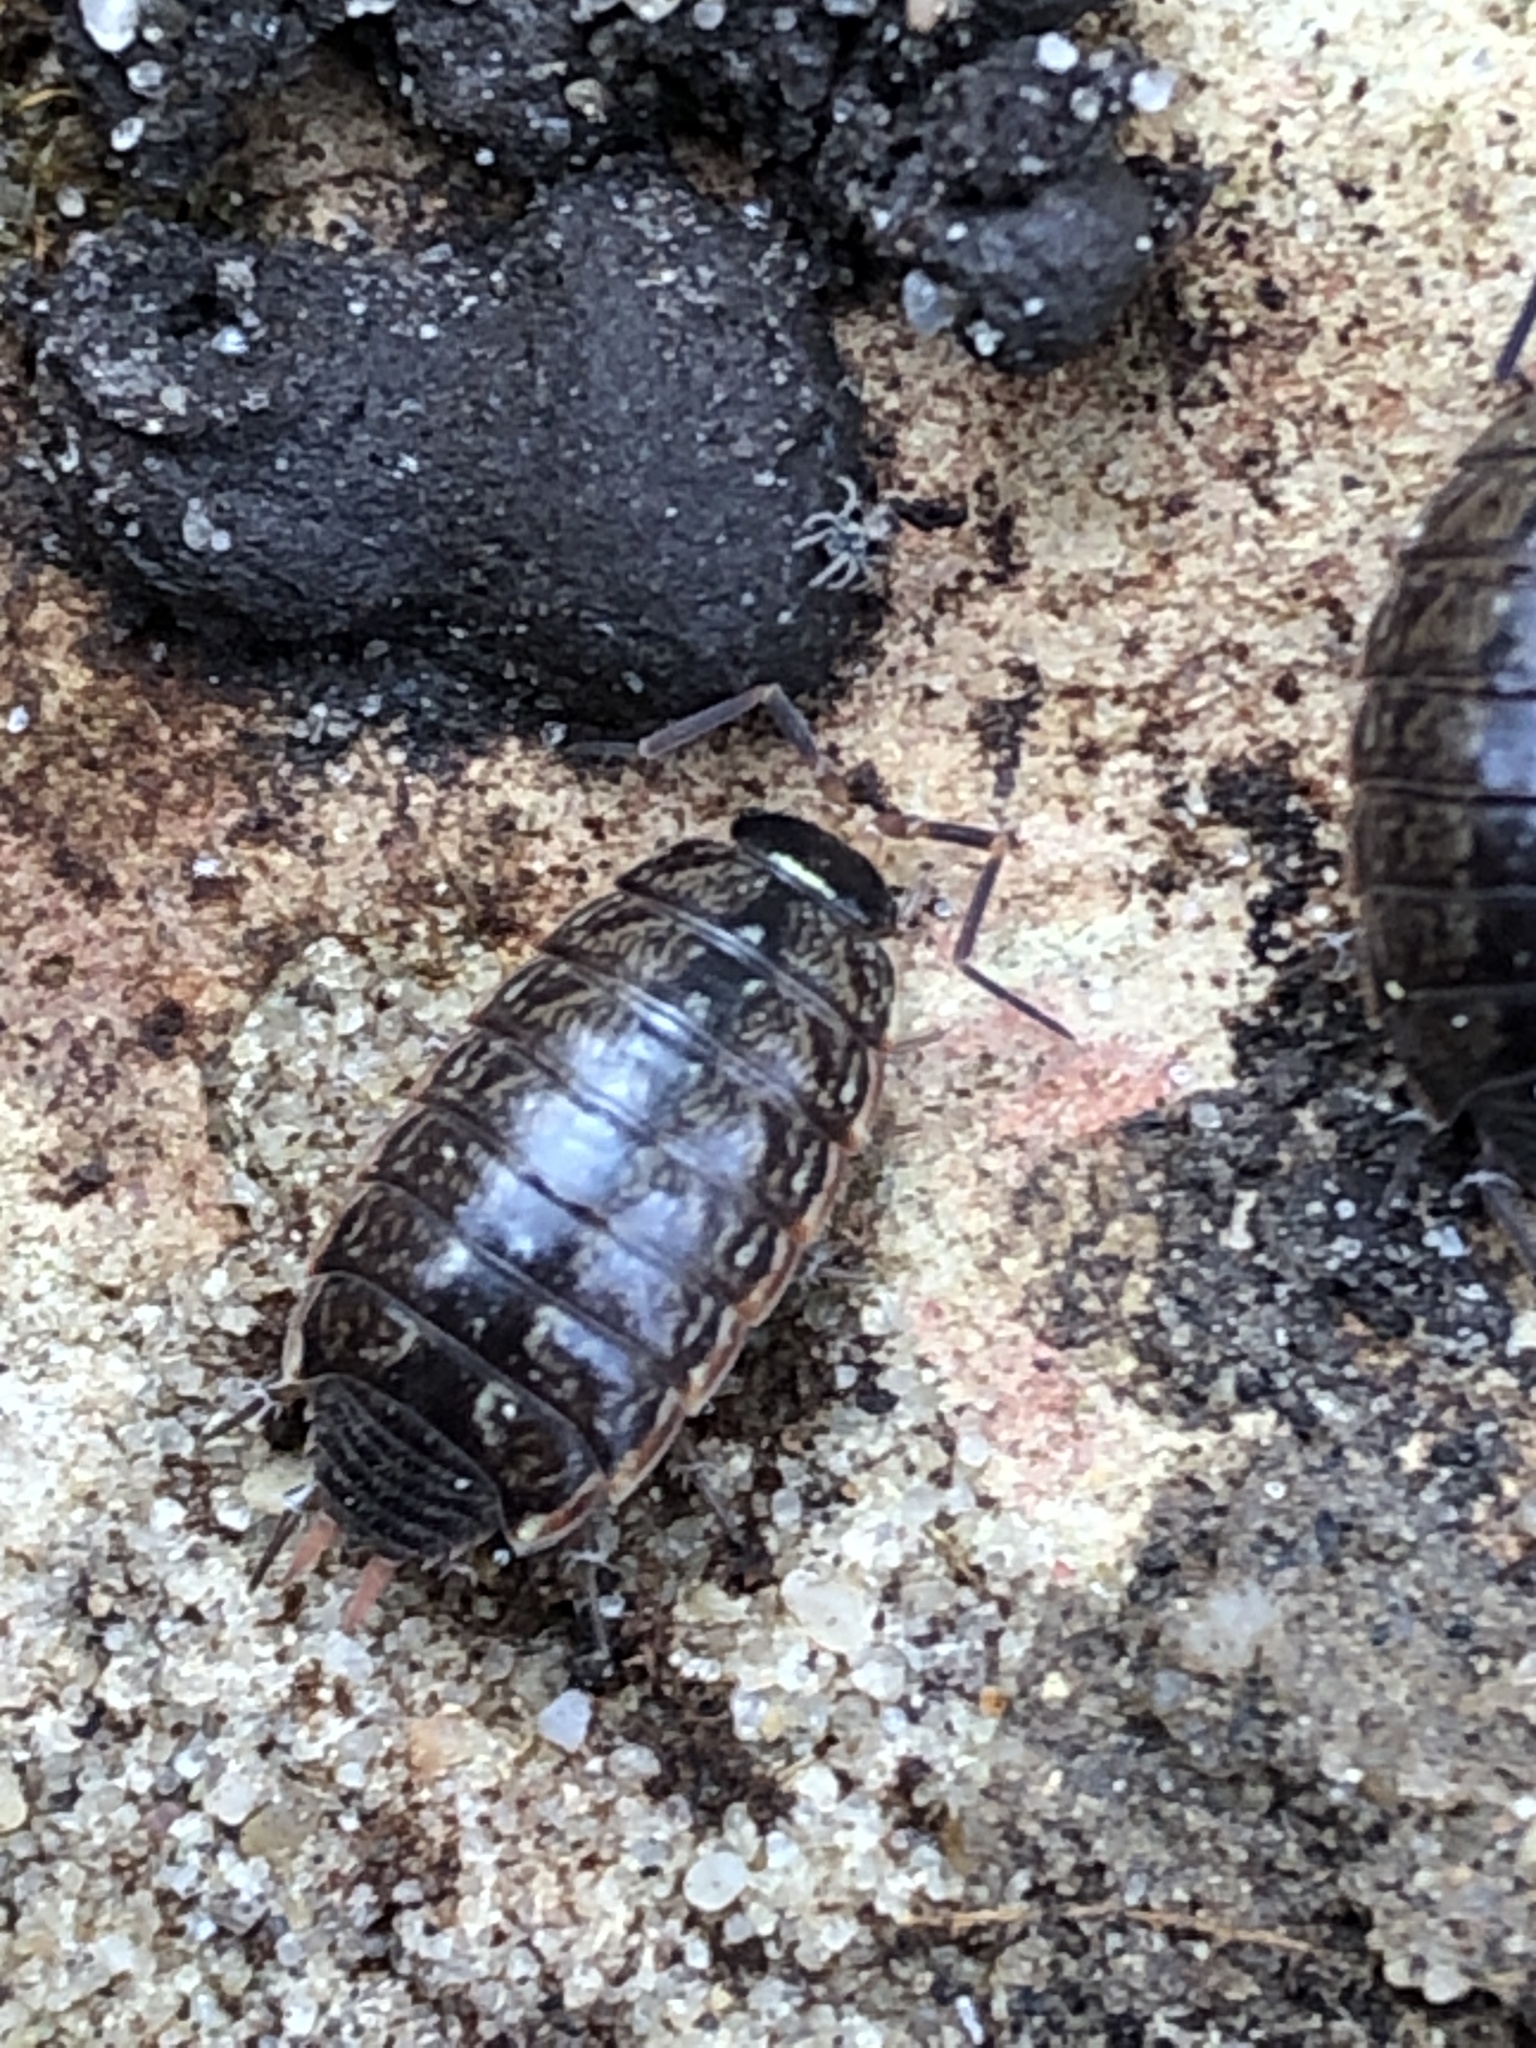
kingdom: Animalia
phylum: Arthropoda
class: Malacostraca
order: Isopoda
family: Philosciidae
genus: Philoscia
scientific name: Philoscia muscorum
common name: Common striped woodlouse
